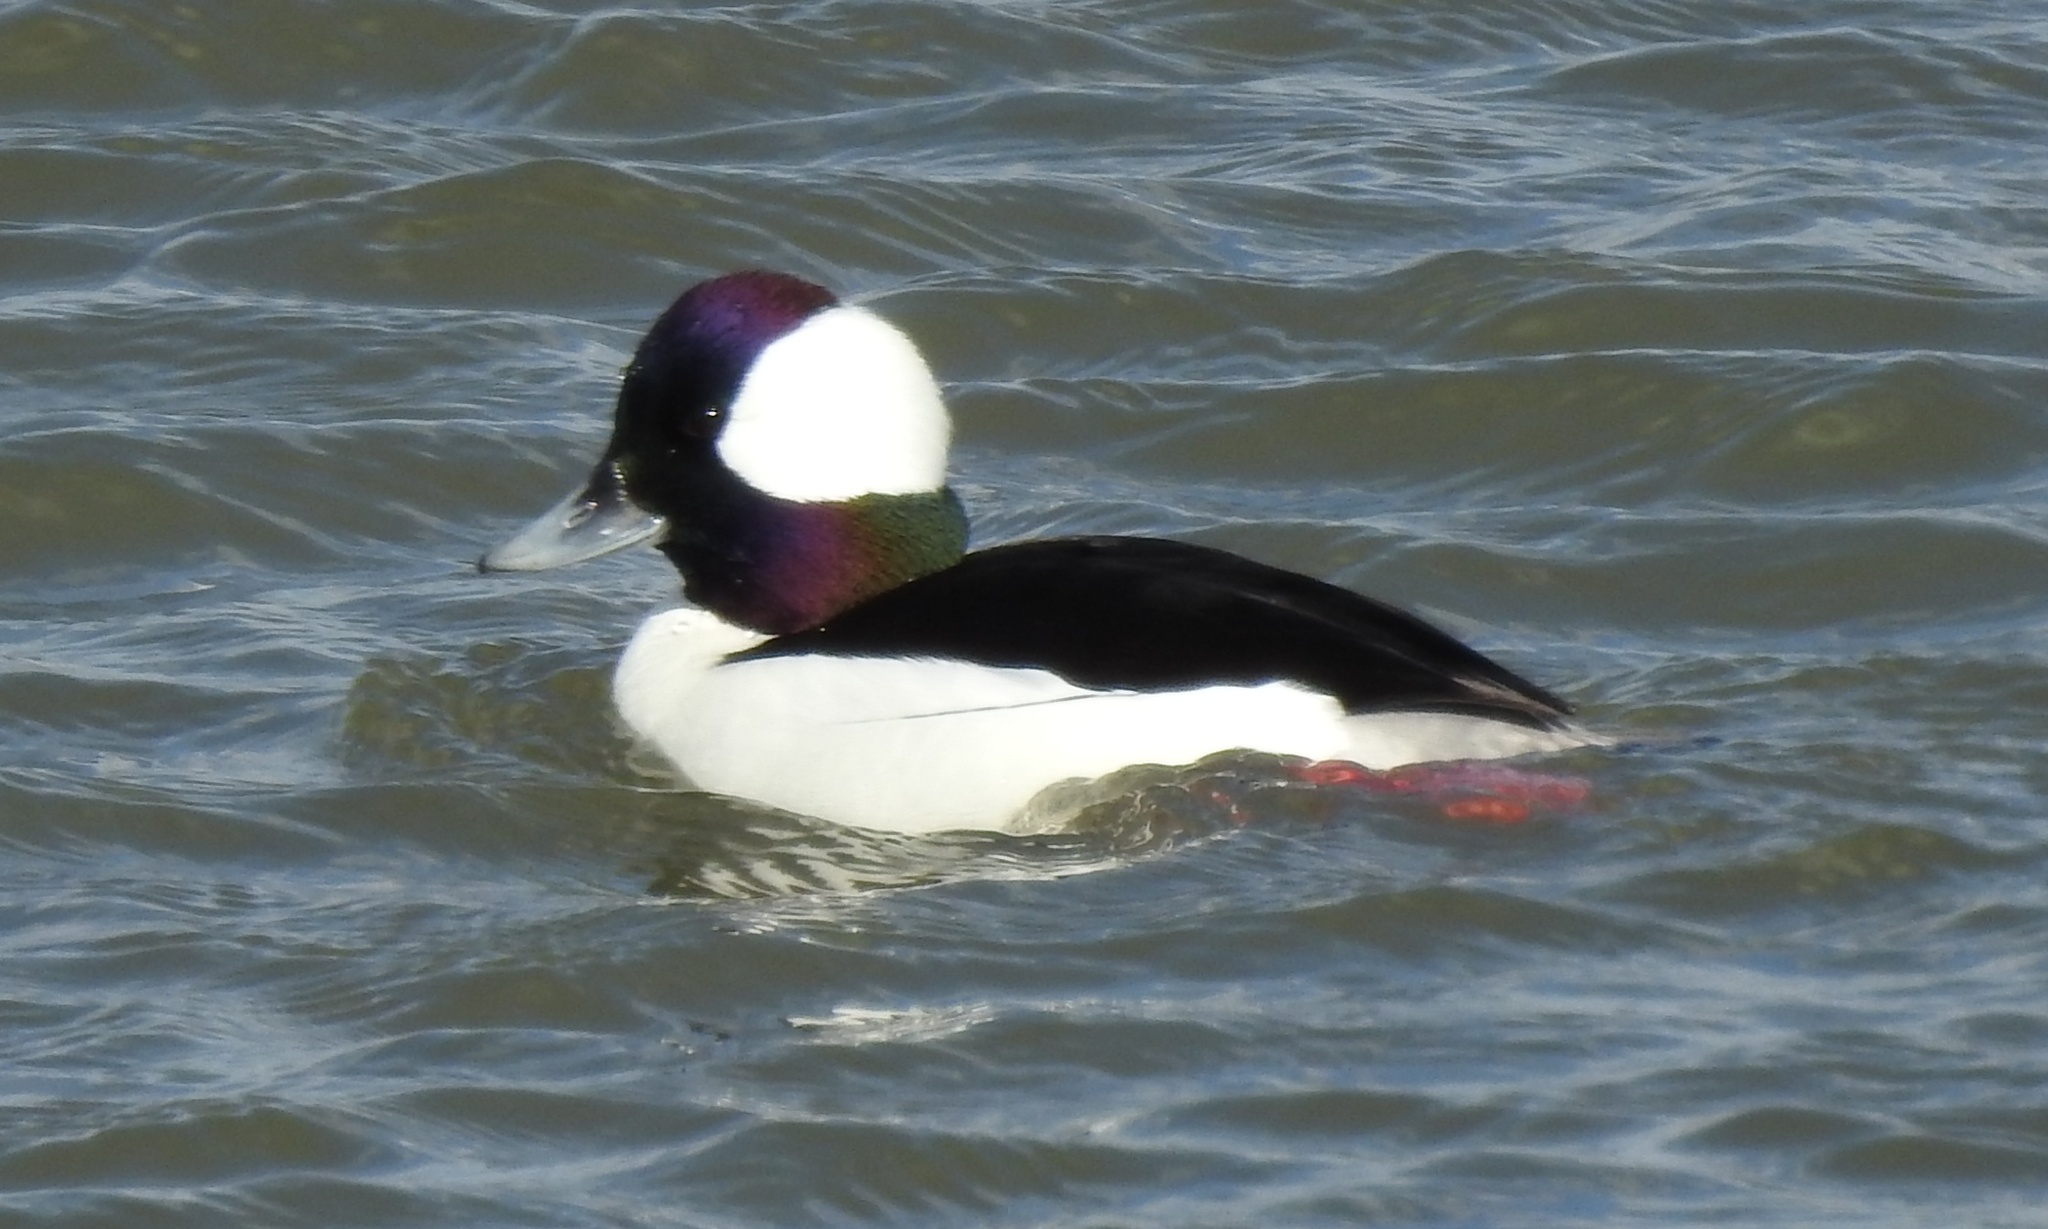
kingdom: Animalia
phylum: Chordata
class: Aves
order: Anseriformes
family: Anatidae
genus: Bucephala
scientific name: Bucephala albeola
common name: Bufflehead
